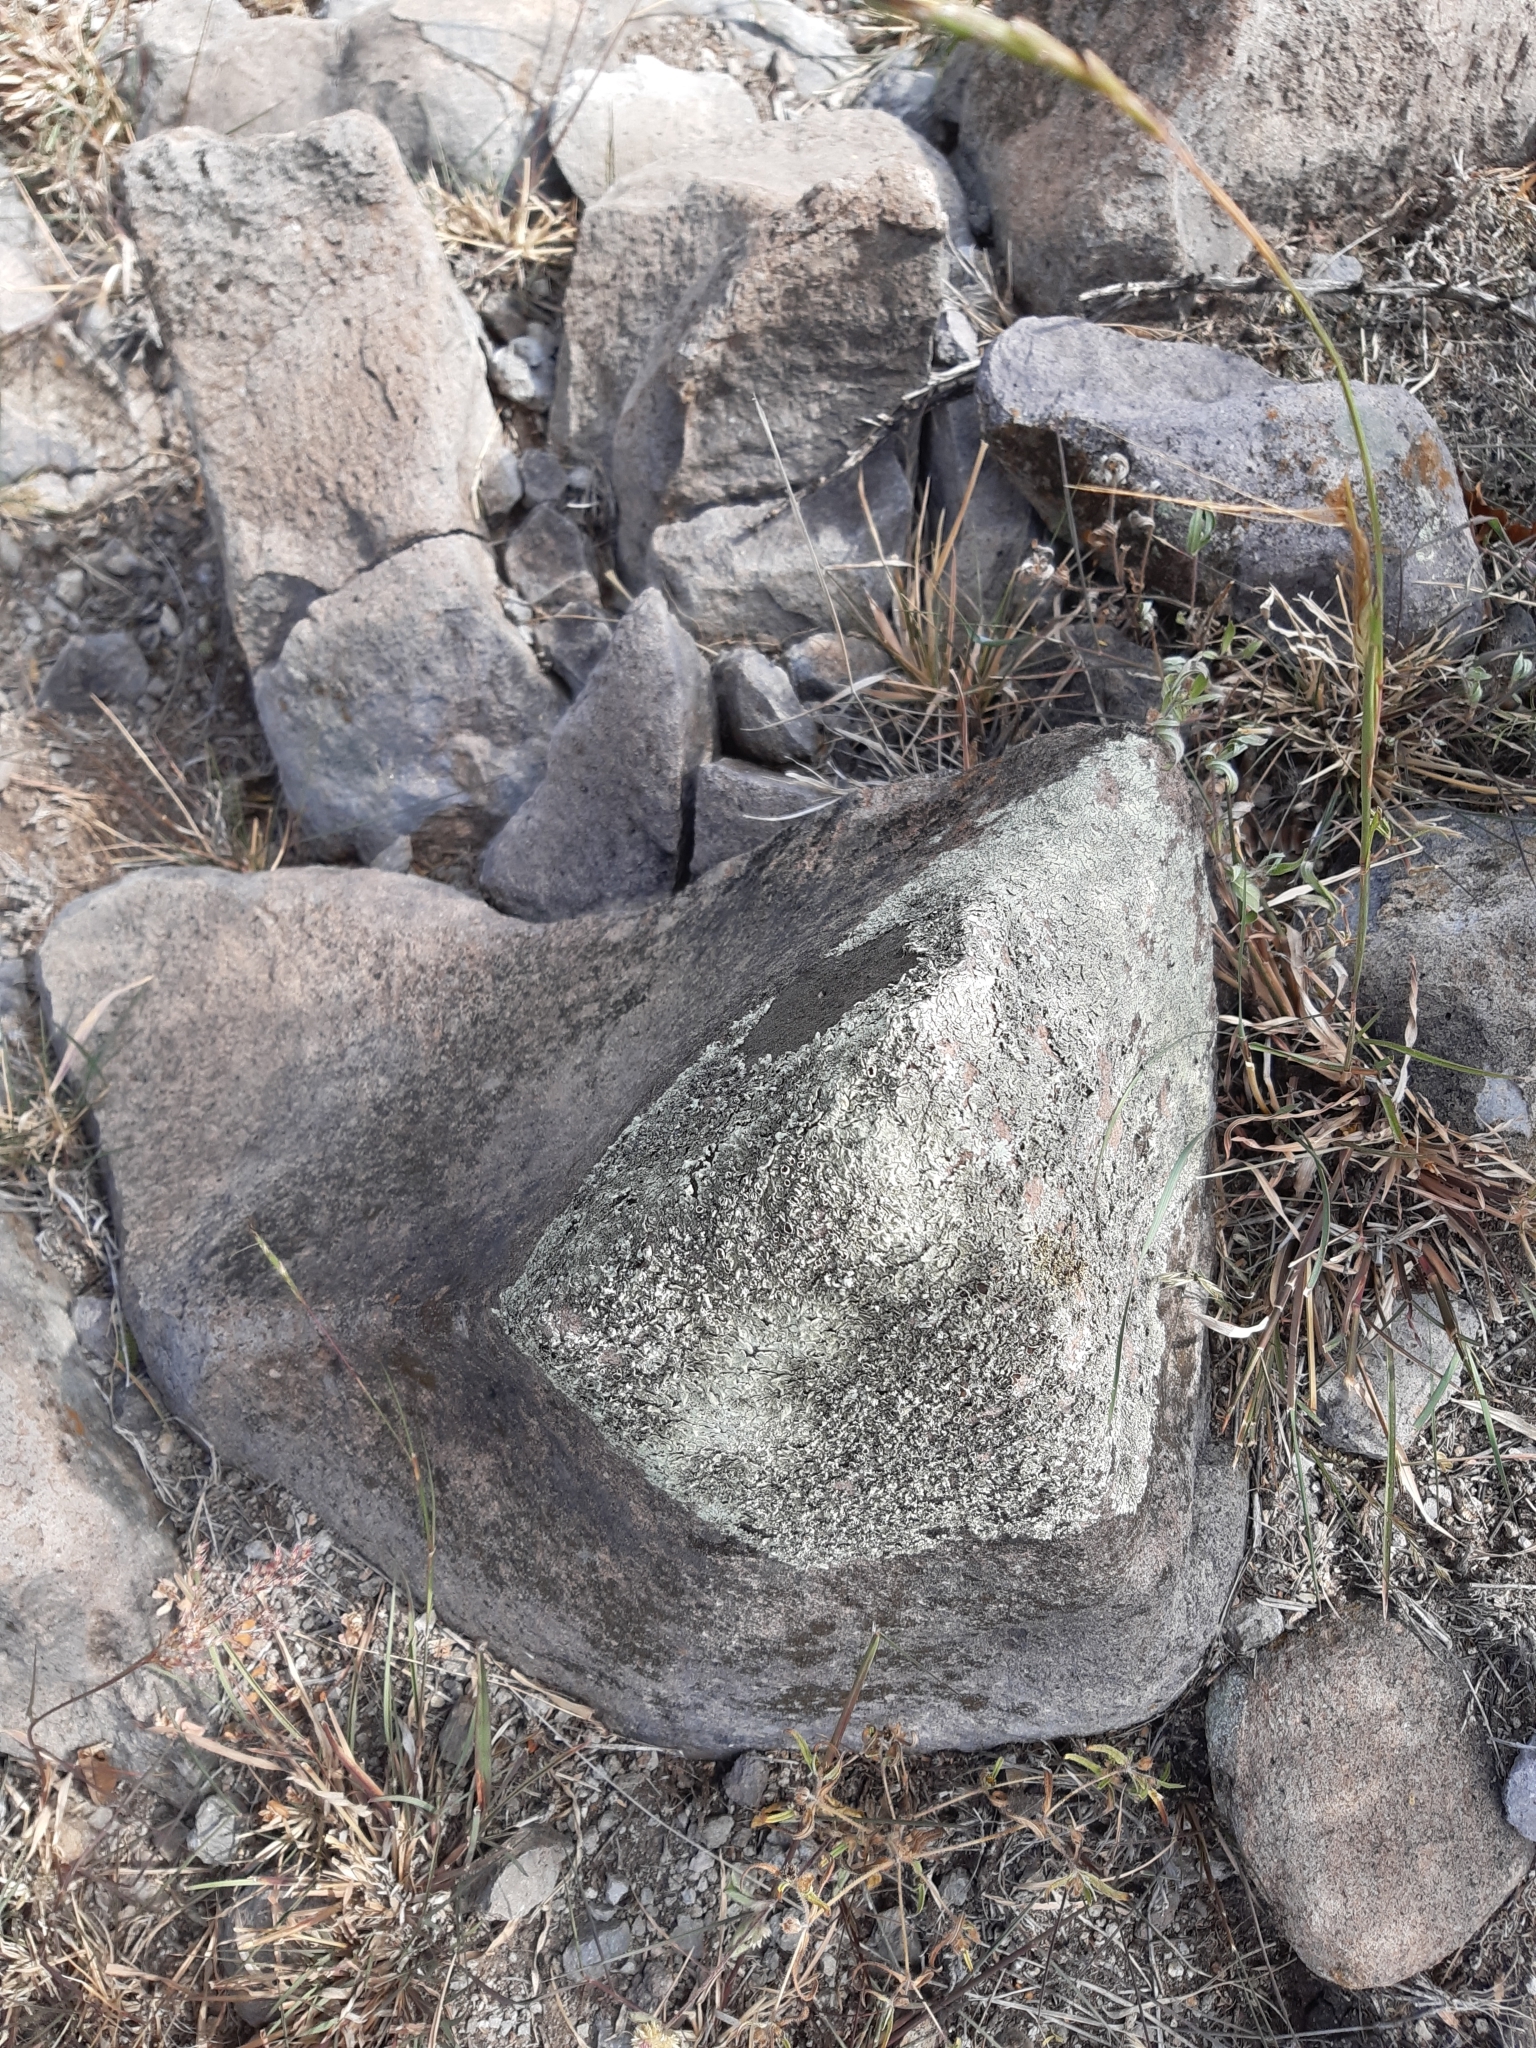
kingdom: Fungi
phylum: Ascomycota
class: Lecanoromycetes
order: Lecanorales
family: Parmeliaceae
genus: Xanthoparmelia
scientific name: Xanthoparmelia cumberlandia
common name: Cumberland rock shield
